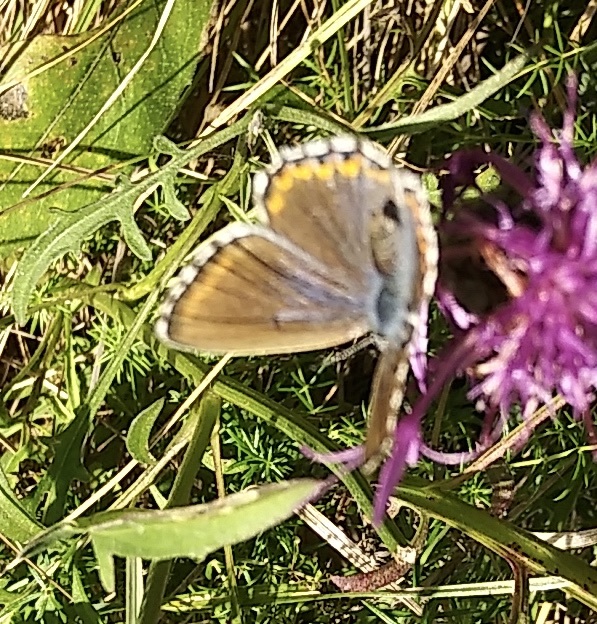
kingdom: Animalia
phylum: Arthropoda
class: Insecta
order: Lepidoptera
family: Lycaenidae
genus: Lysandra
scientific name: Lysandra bellargus
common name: Adonis blue
